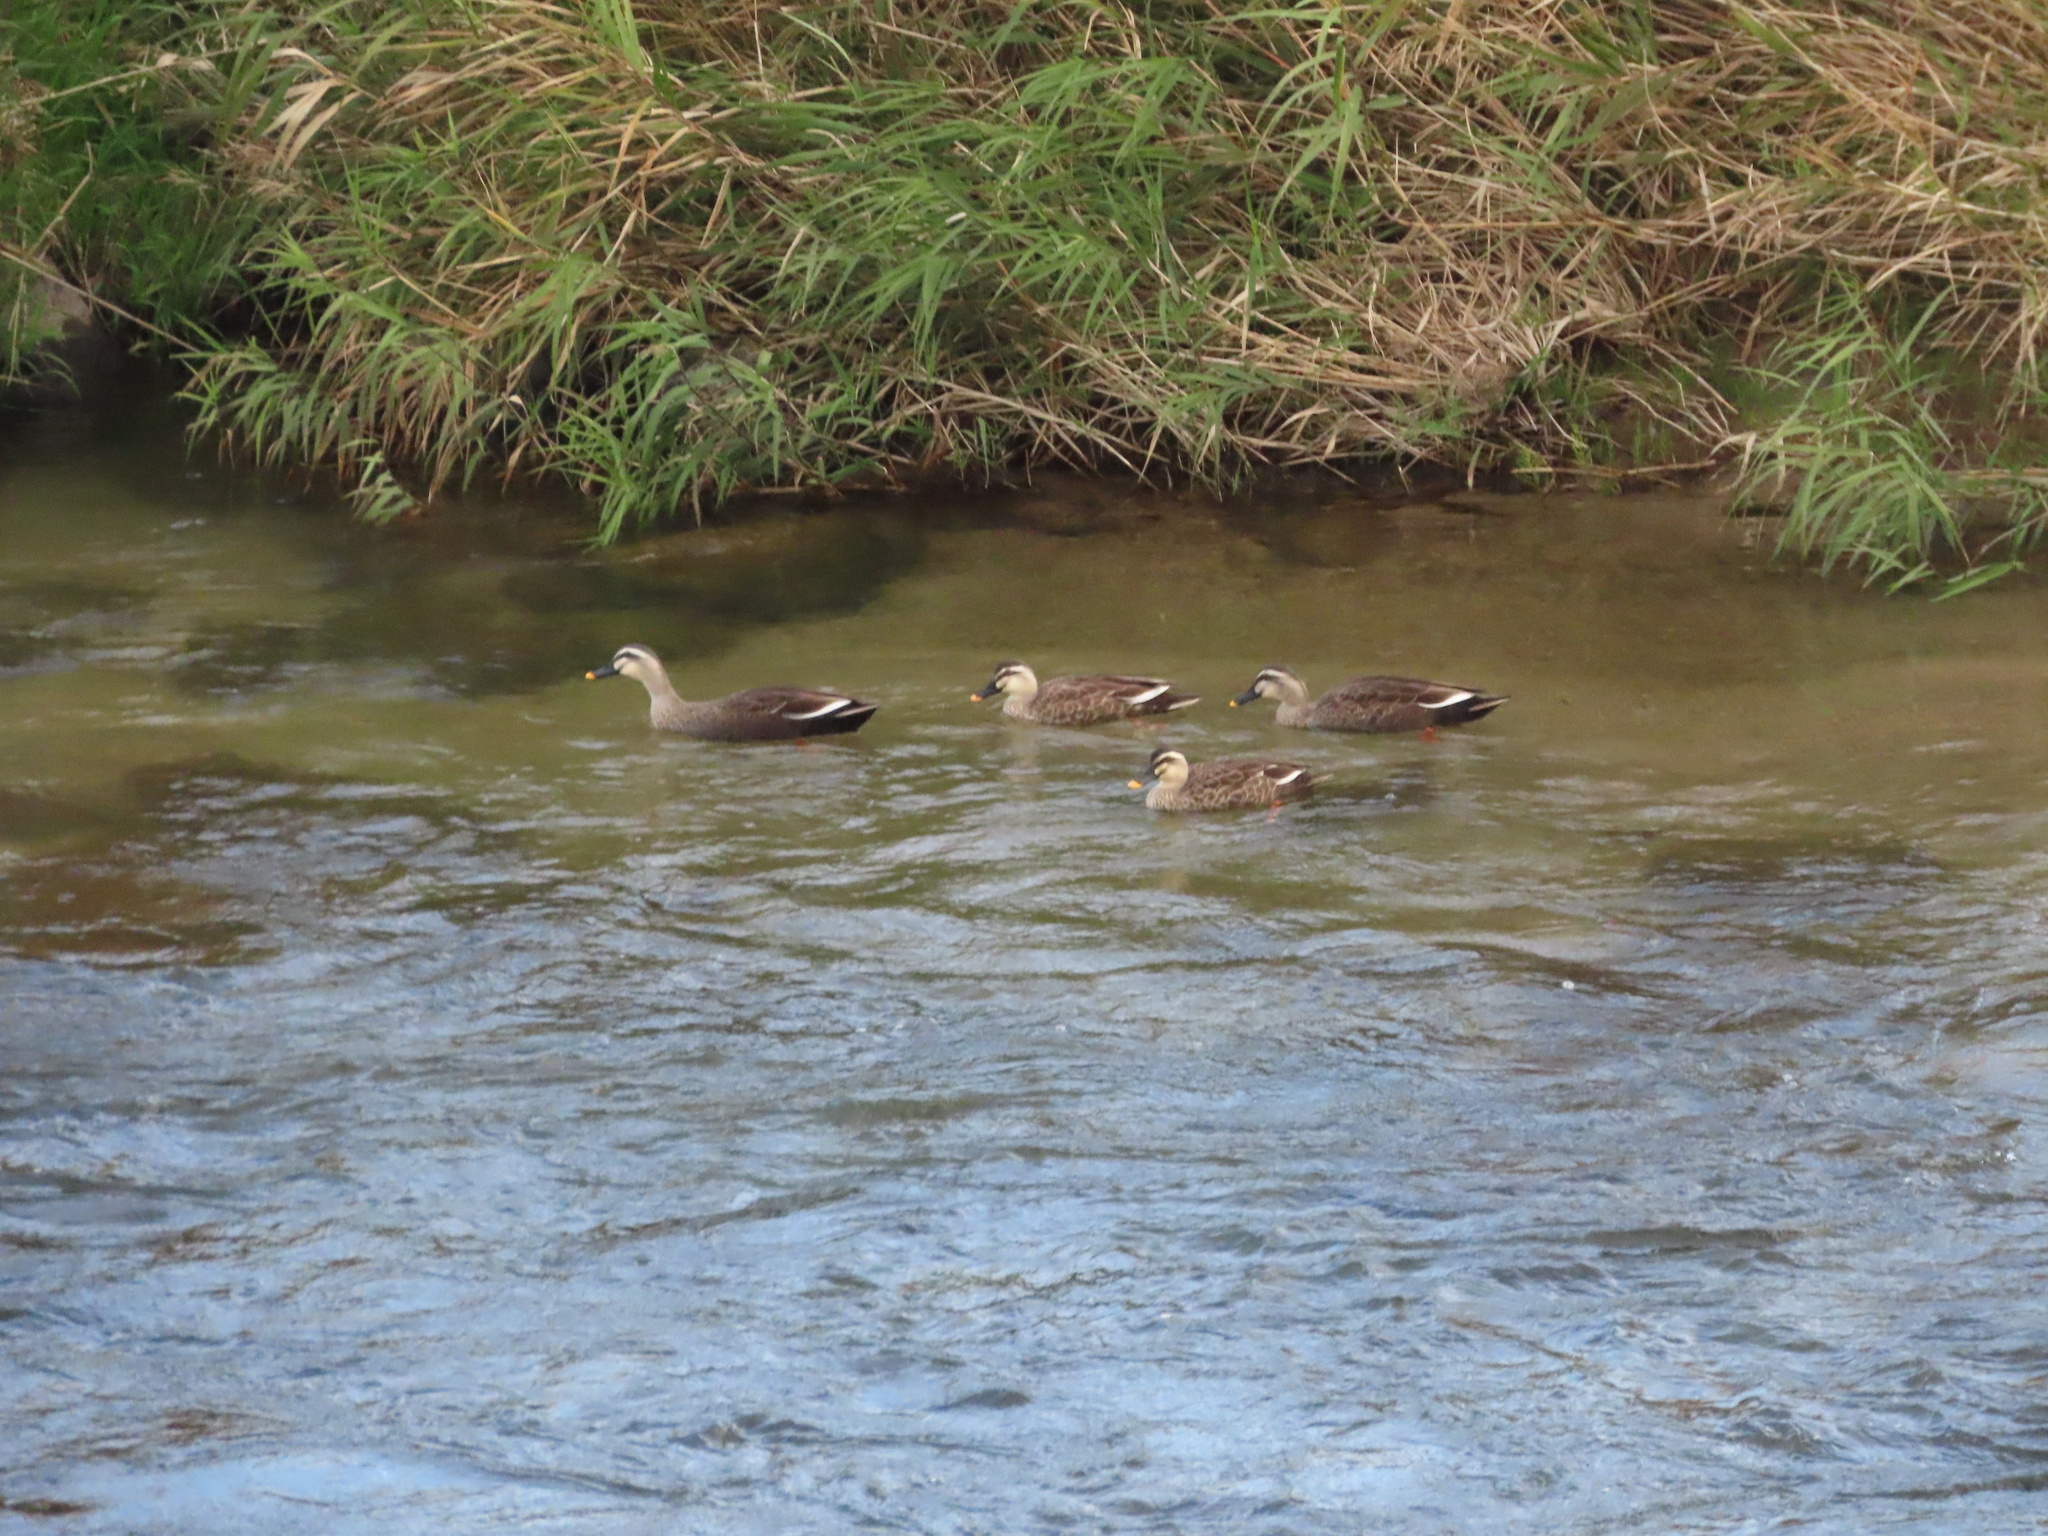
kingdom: Animalia
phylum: Chordata
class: Aves
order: Anseriformes
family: Anatidae
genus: Anas
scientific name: Anas zonorhyncha
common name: Eastern spot-billed duck
